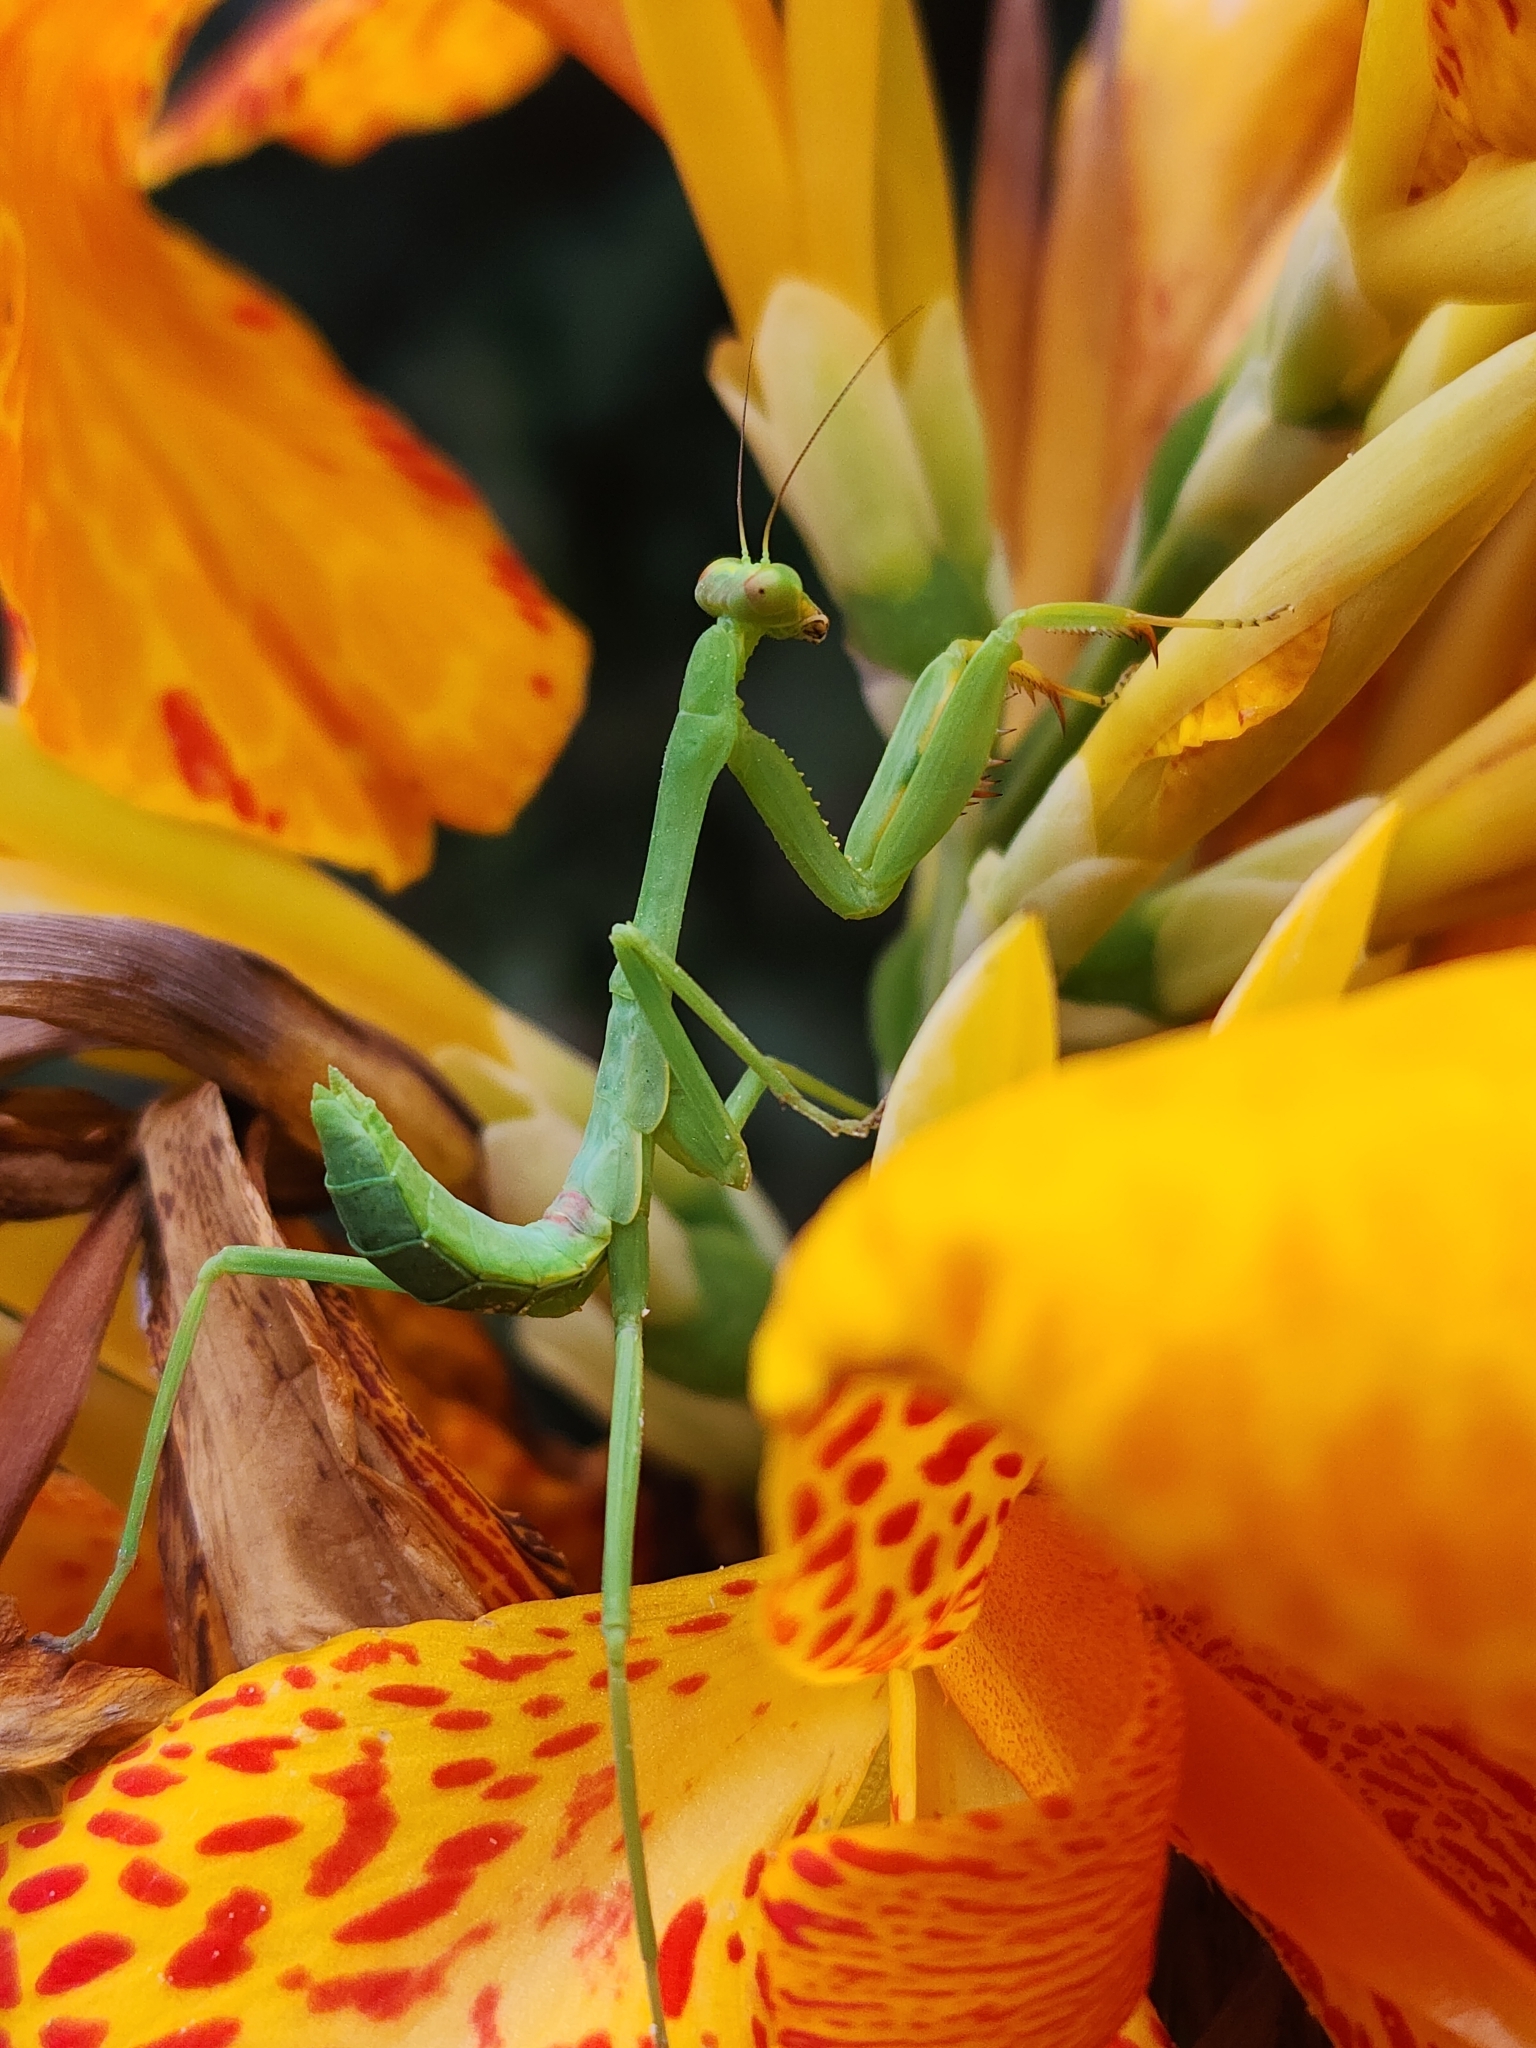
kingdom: Animalia
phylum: Arthropoda
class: Insecta
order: Mantodea
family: Mantidae
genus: Stagmatoptera
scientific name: Stagmatoptera hyaloptera
